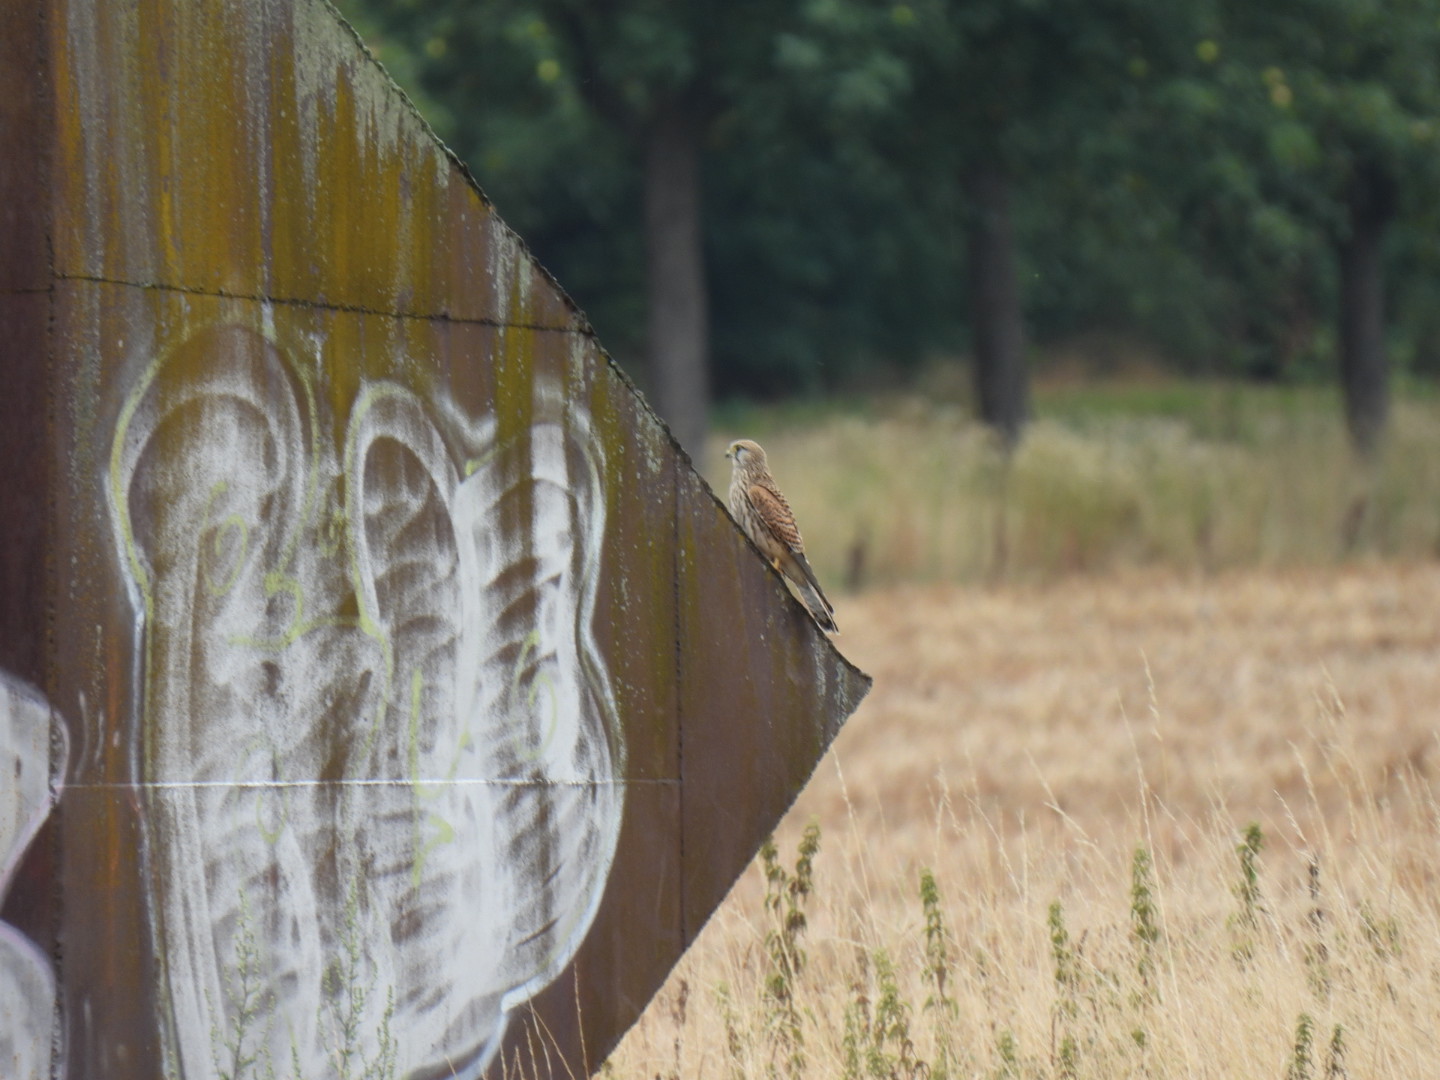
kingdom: Animalia
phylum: Chordata
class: Aves
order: Falconiformes
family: Falconidae
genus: Falco
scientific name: Falco tinnunculus
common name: Common kestrel
